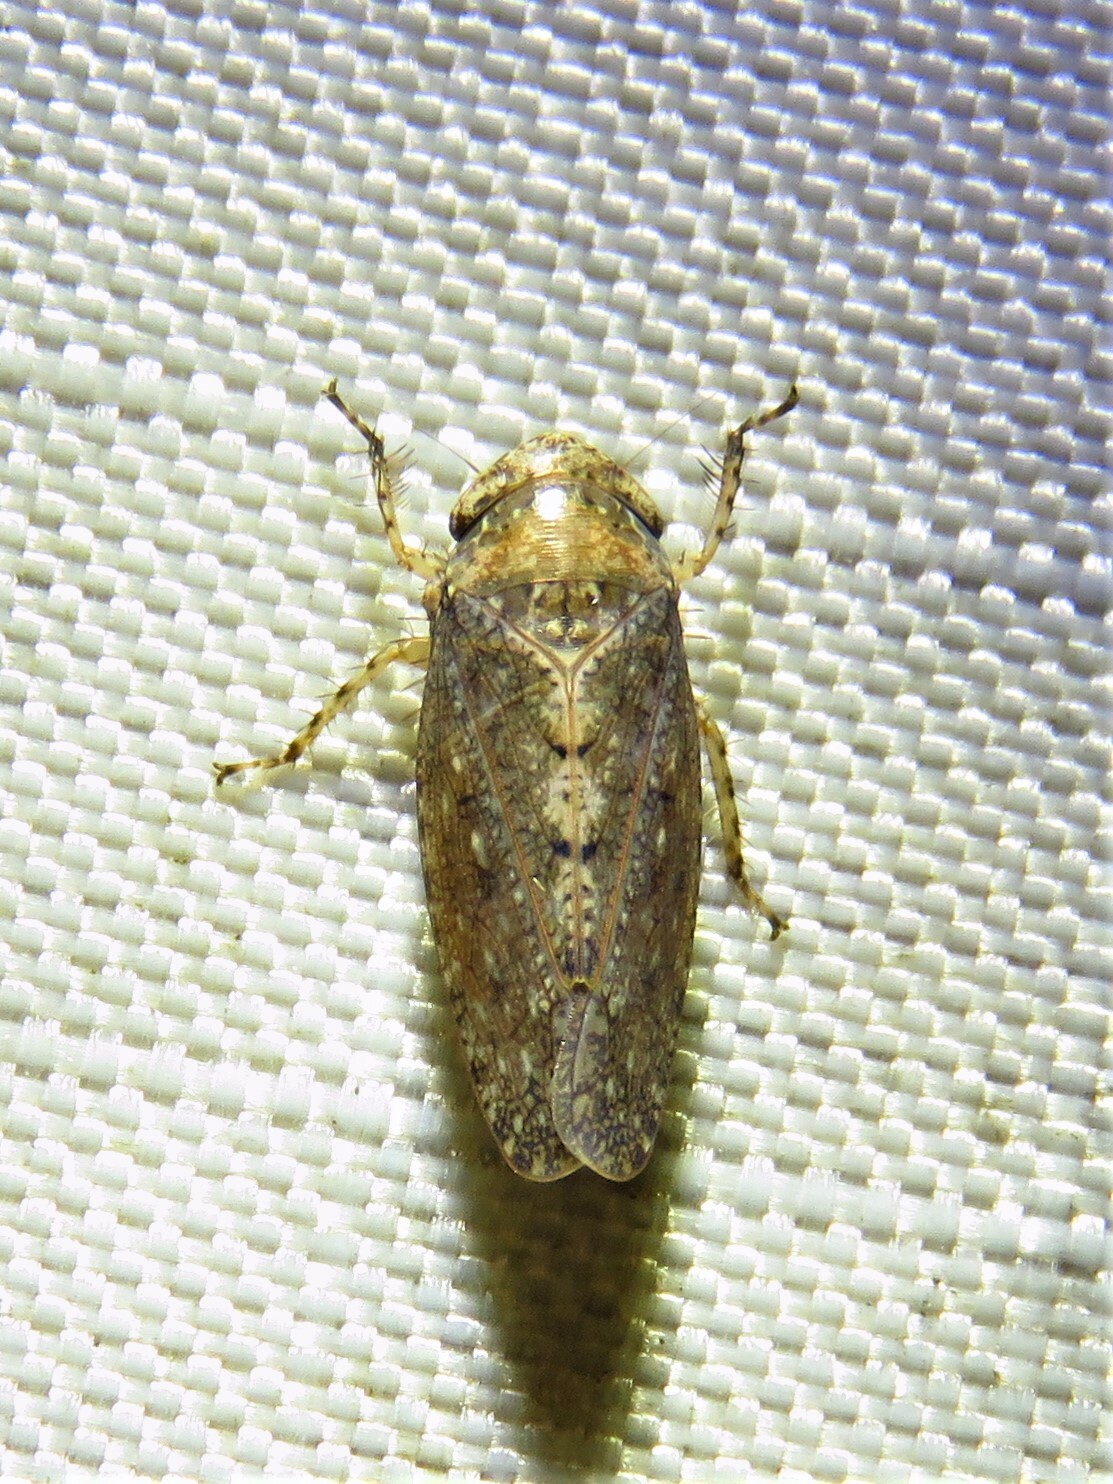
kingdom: Animalia
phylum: Arthropoda
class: Insecta
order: Hemiptera
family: Cicadellidae
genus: Excultanus
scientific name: Excultanus excultus
